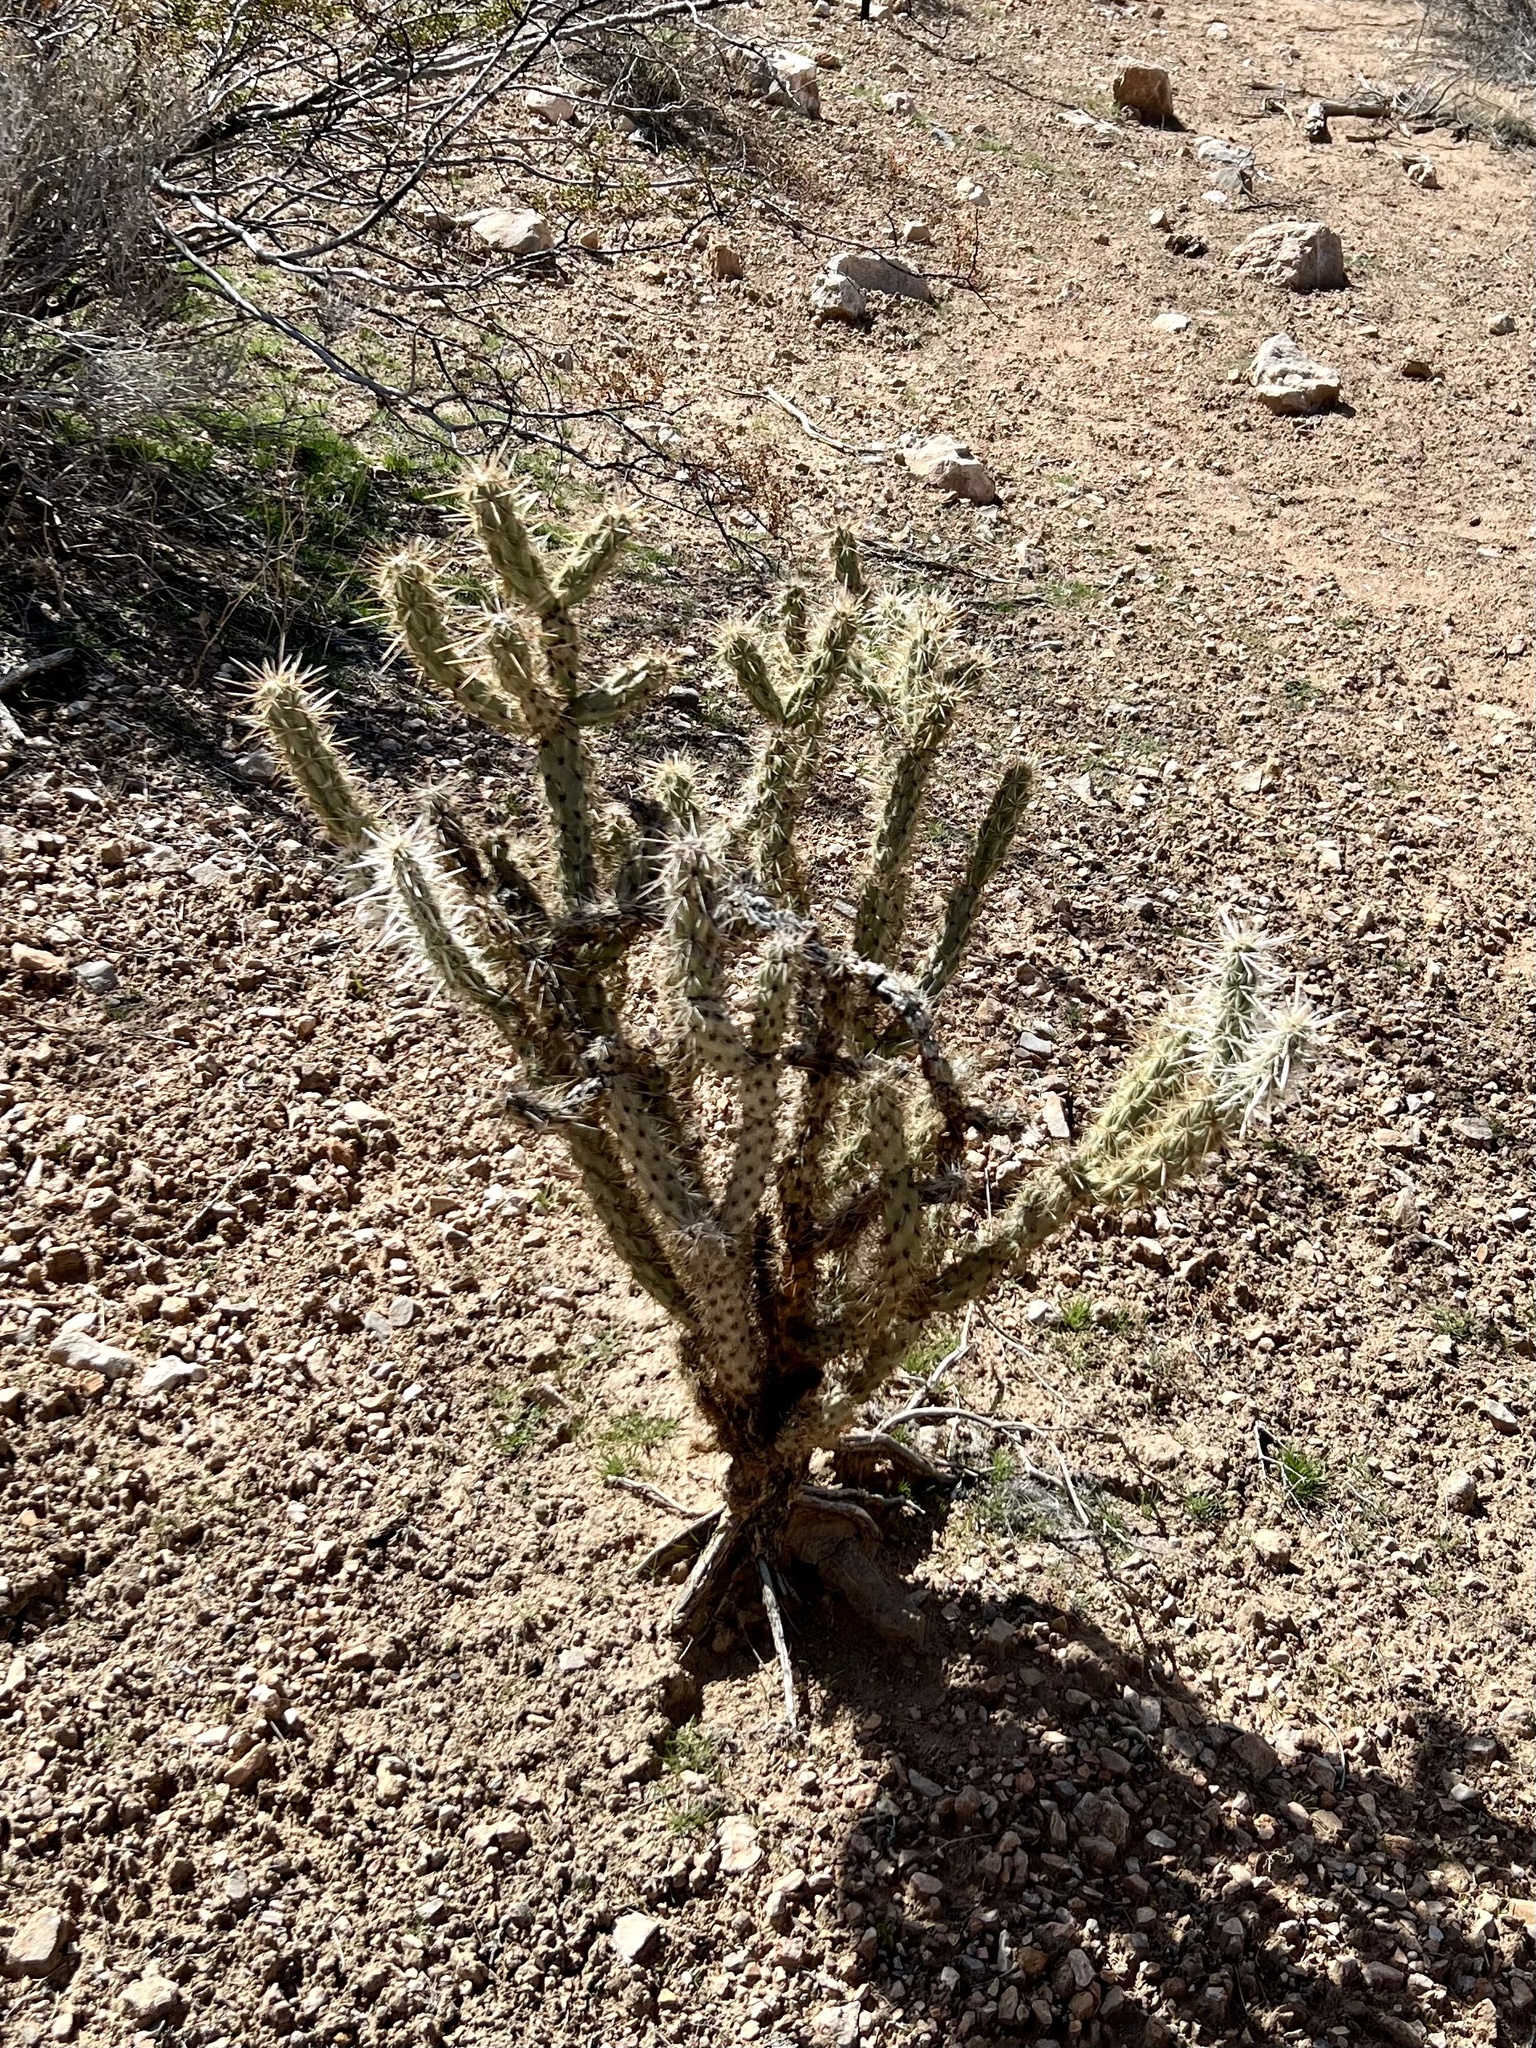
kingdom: Plantae
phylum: Tracheophyta
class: Magnoliopsida
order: Caryophyllales
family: Cactaceae
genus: Cylindropuntia
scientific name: Cylindropuntia acanthocarpa
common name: Buckhorn cholla
